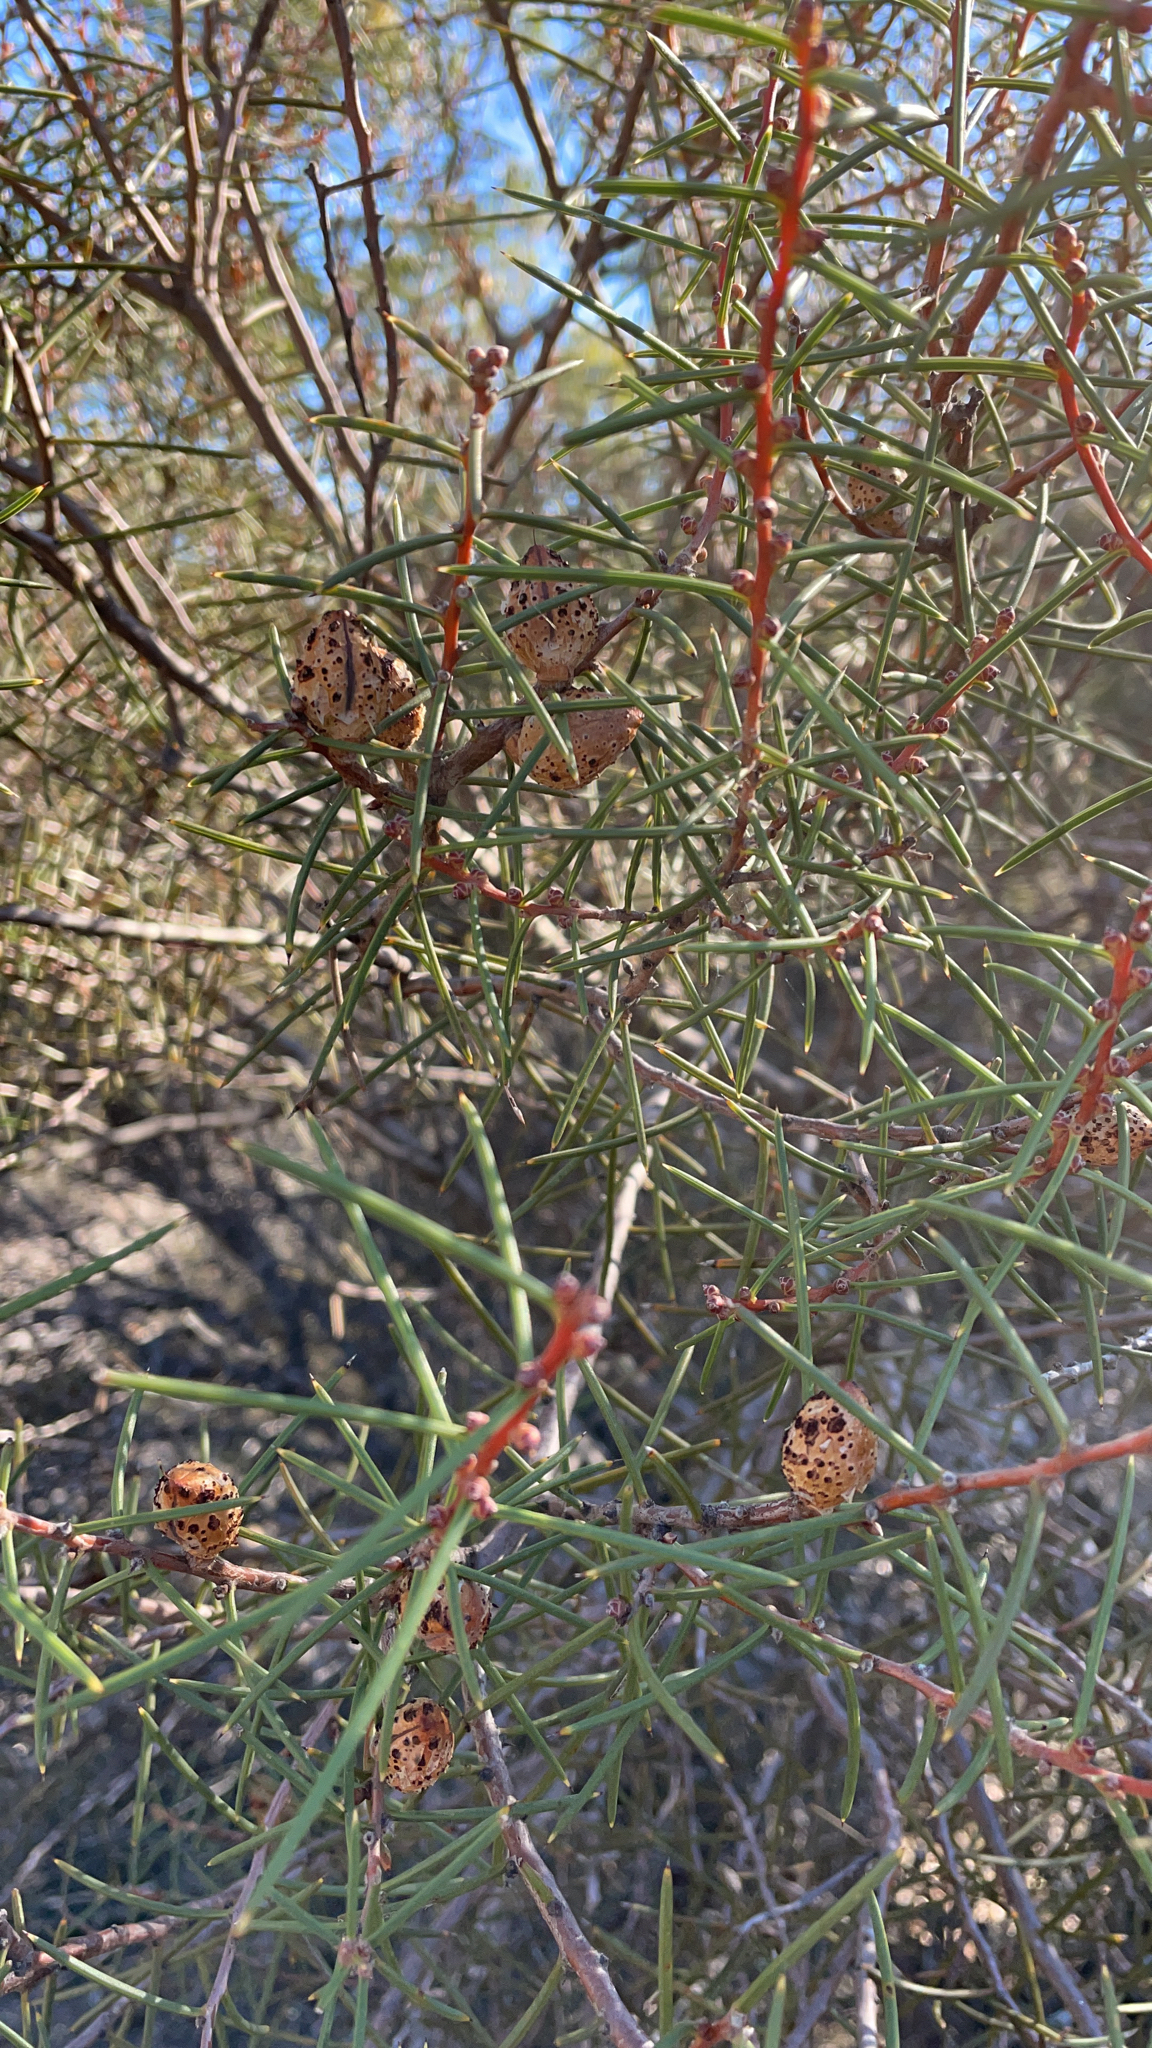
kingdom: Plantae
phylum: Tracheophyta
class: Magnoliopsida
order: Proteales
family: Proteaceae
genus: Hakea
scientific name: Hakea mitchellii
